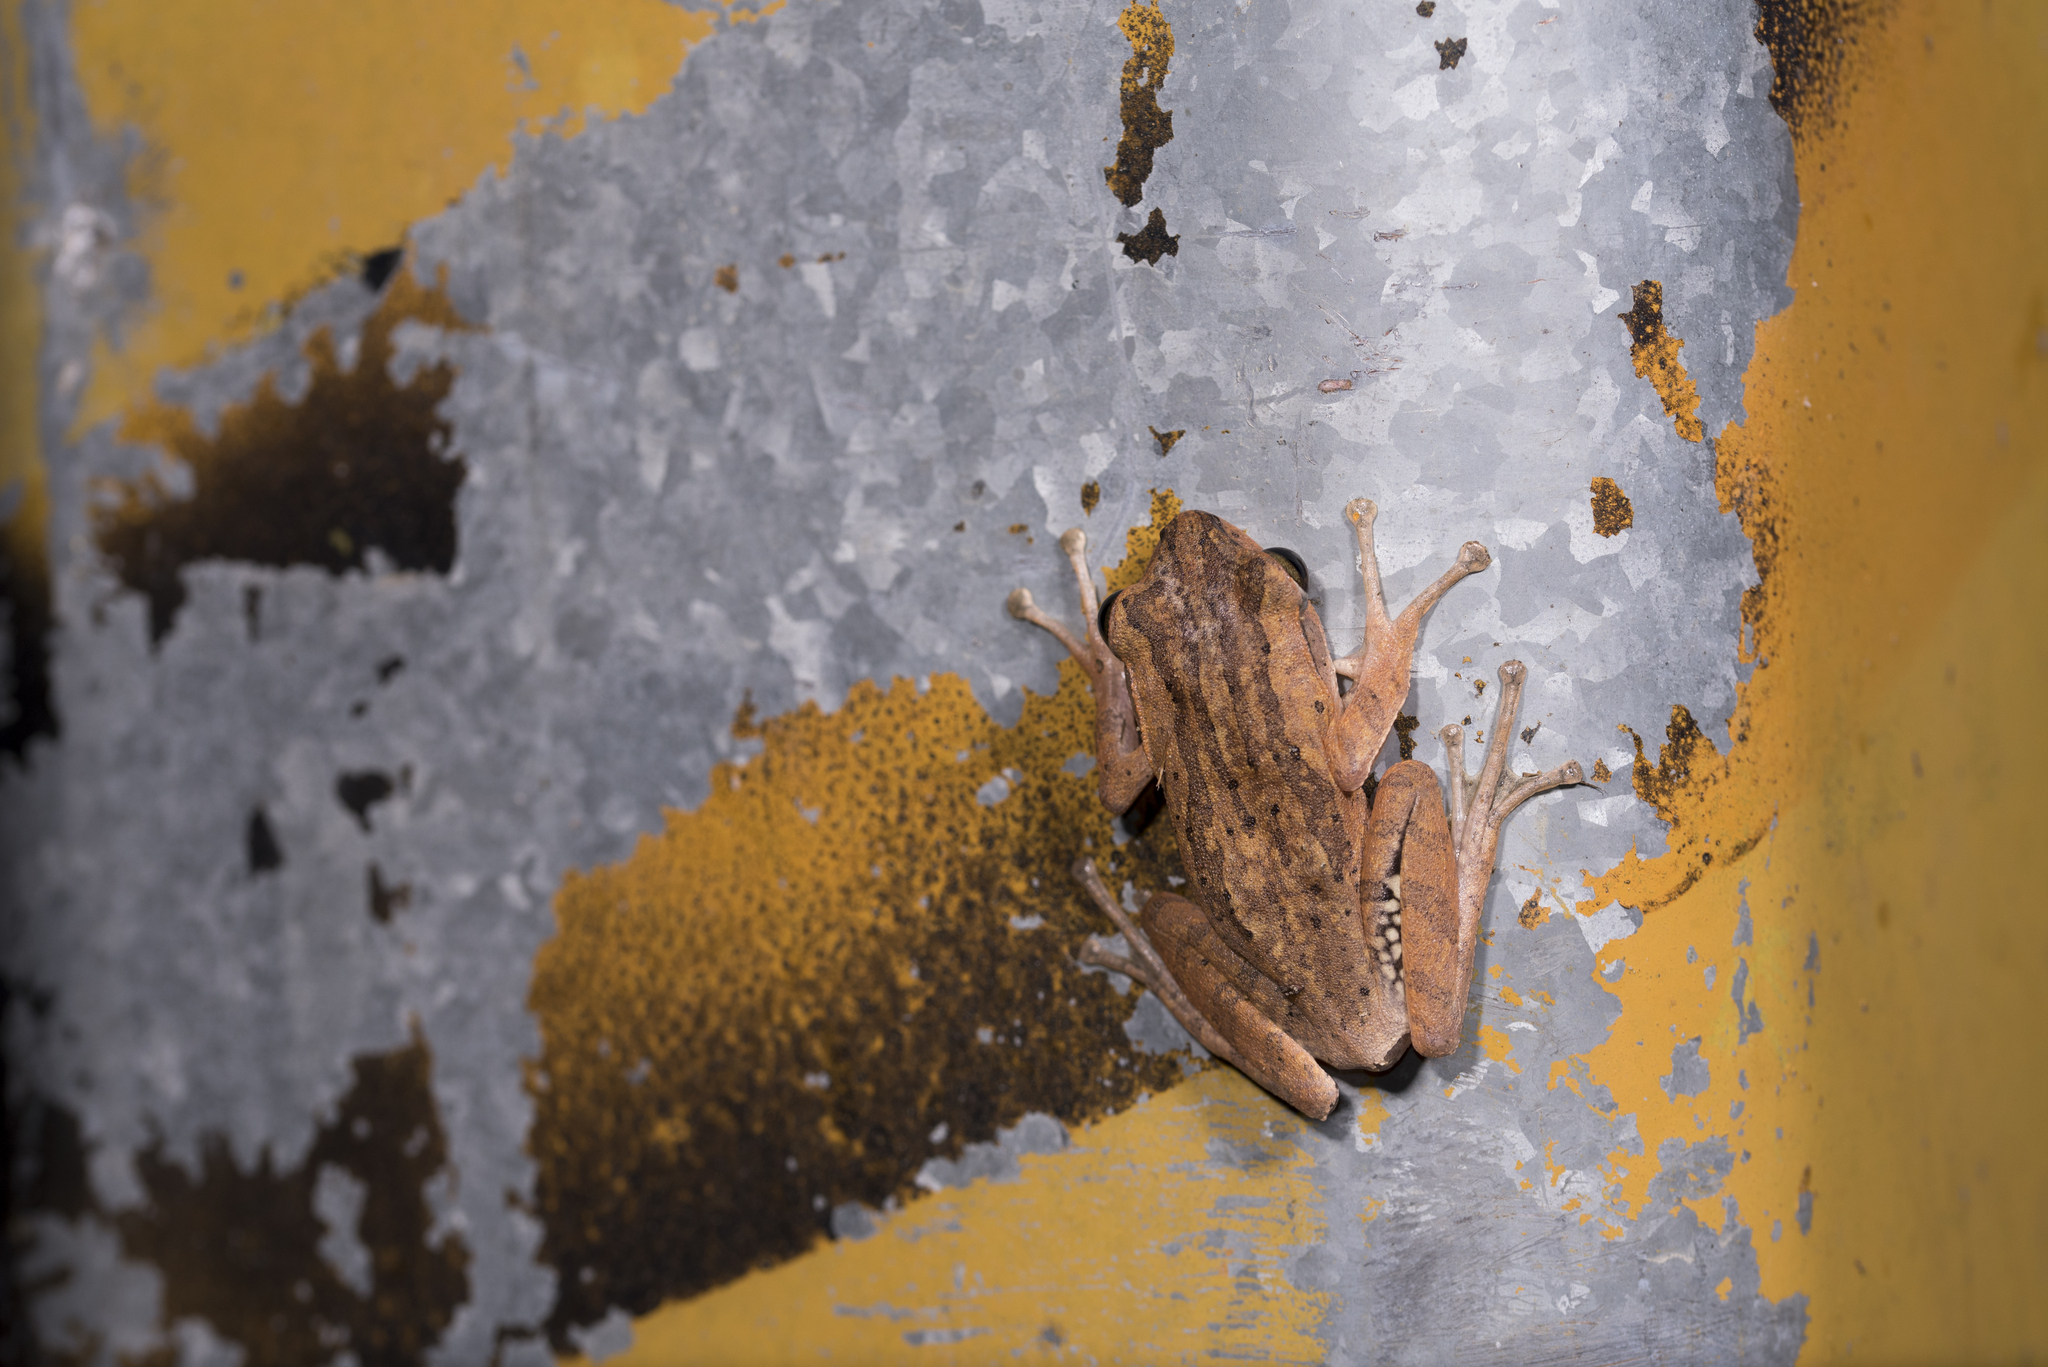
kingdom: Animalia
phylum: Chordata
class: Amphibia
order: Anura
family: Rhacophoridae
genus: Polypedates
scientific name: Polypedates braueri
